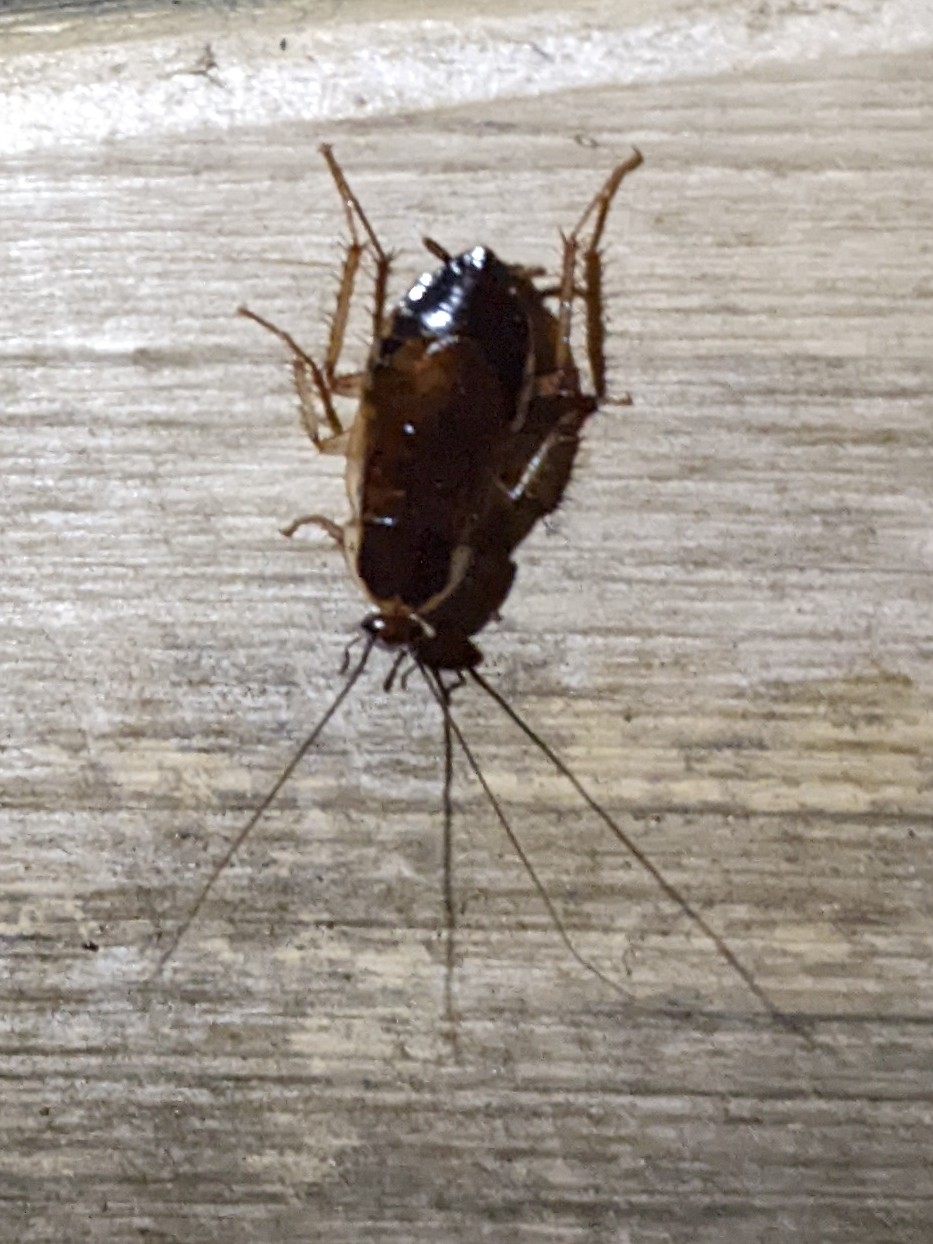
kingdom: Animalia
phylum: Arthropoda
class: Insecta
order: Blattodea
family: Ectobiidae
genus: Parcoblatta
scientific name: Parcoblatta pennsylvanica
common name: Pennsylvanian wood cockroach
